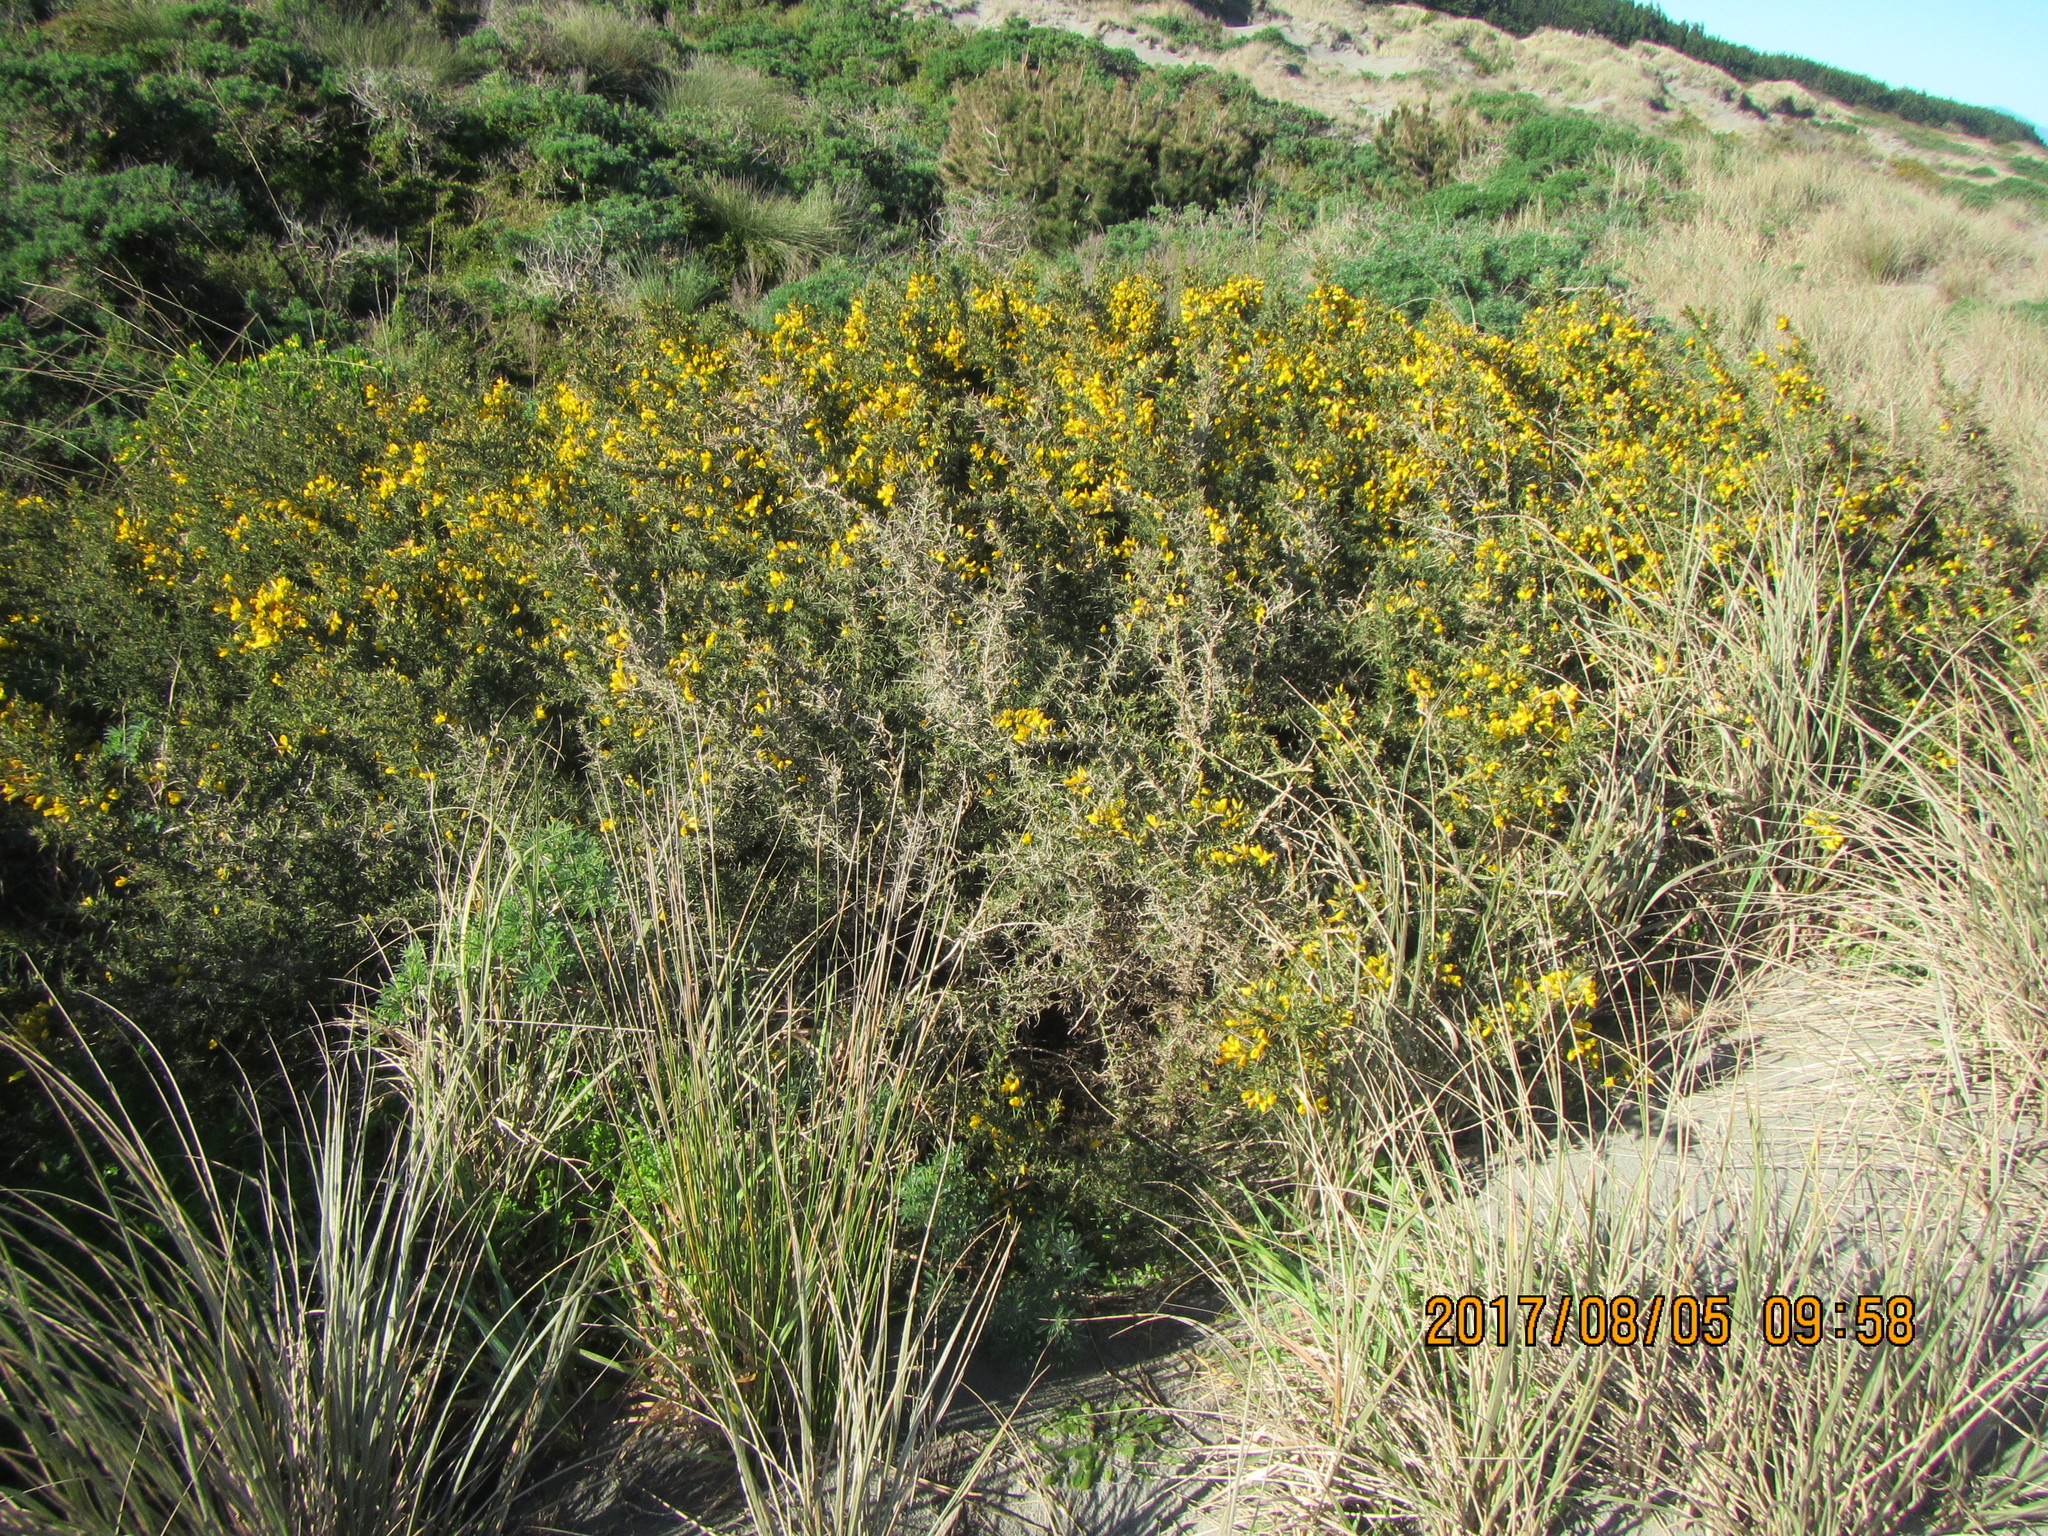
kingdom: Plantae
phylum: Tracheophyta
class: Magnoliopsida
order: Fabales
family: Fabaceae
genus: Ulex
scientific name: Ulex europaeus
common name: Common gorse
